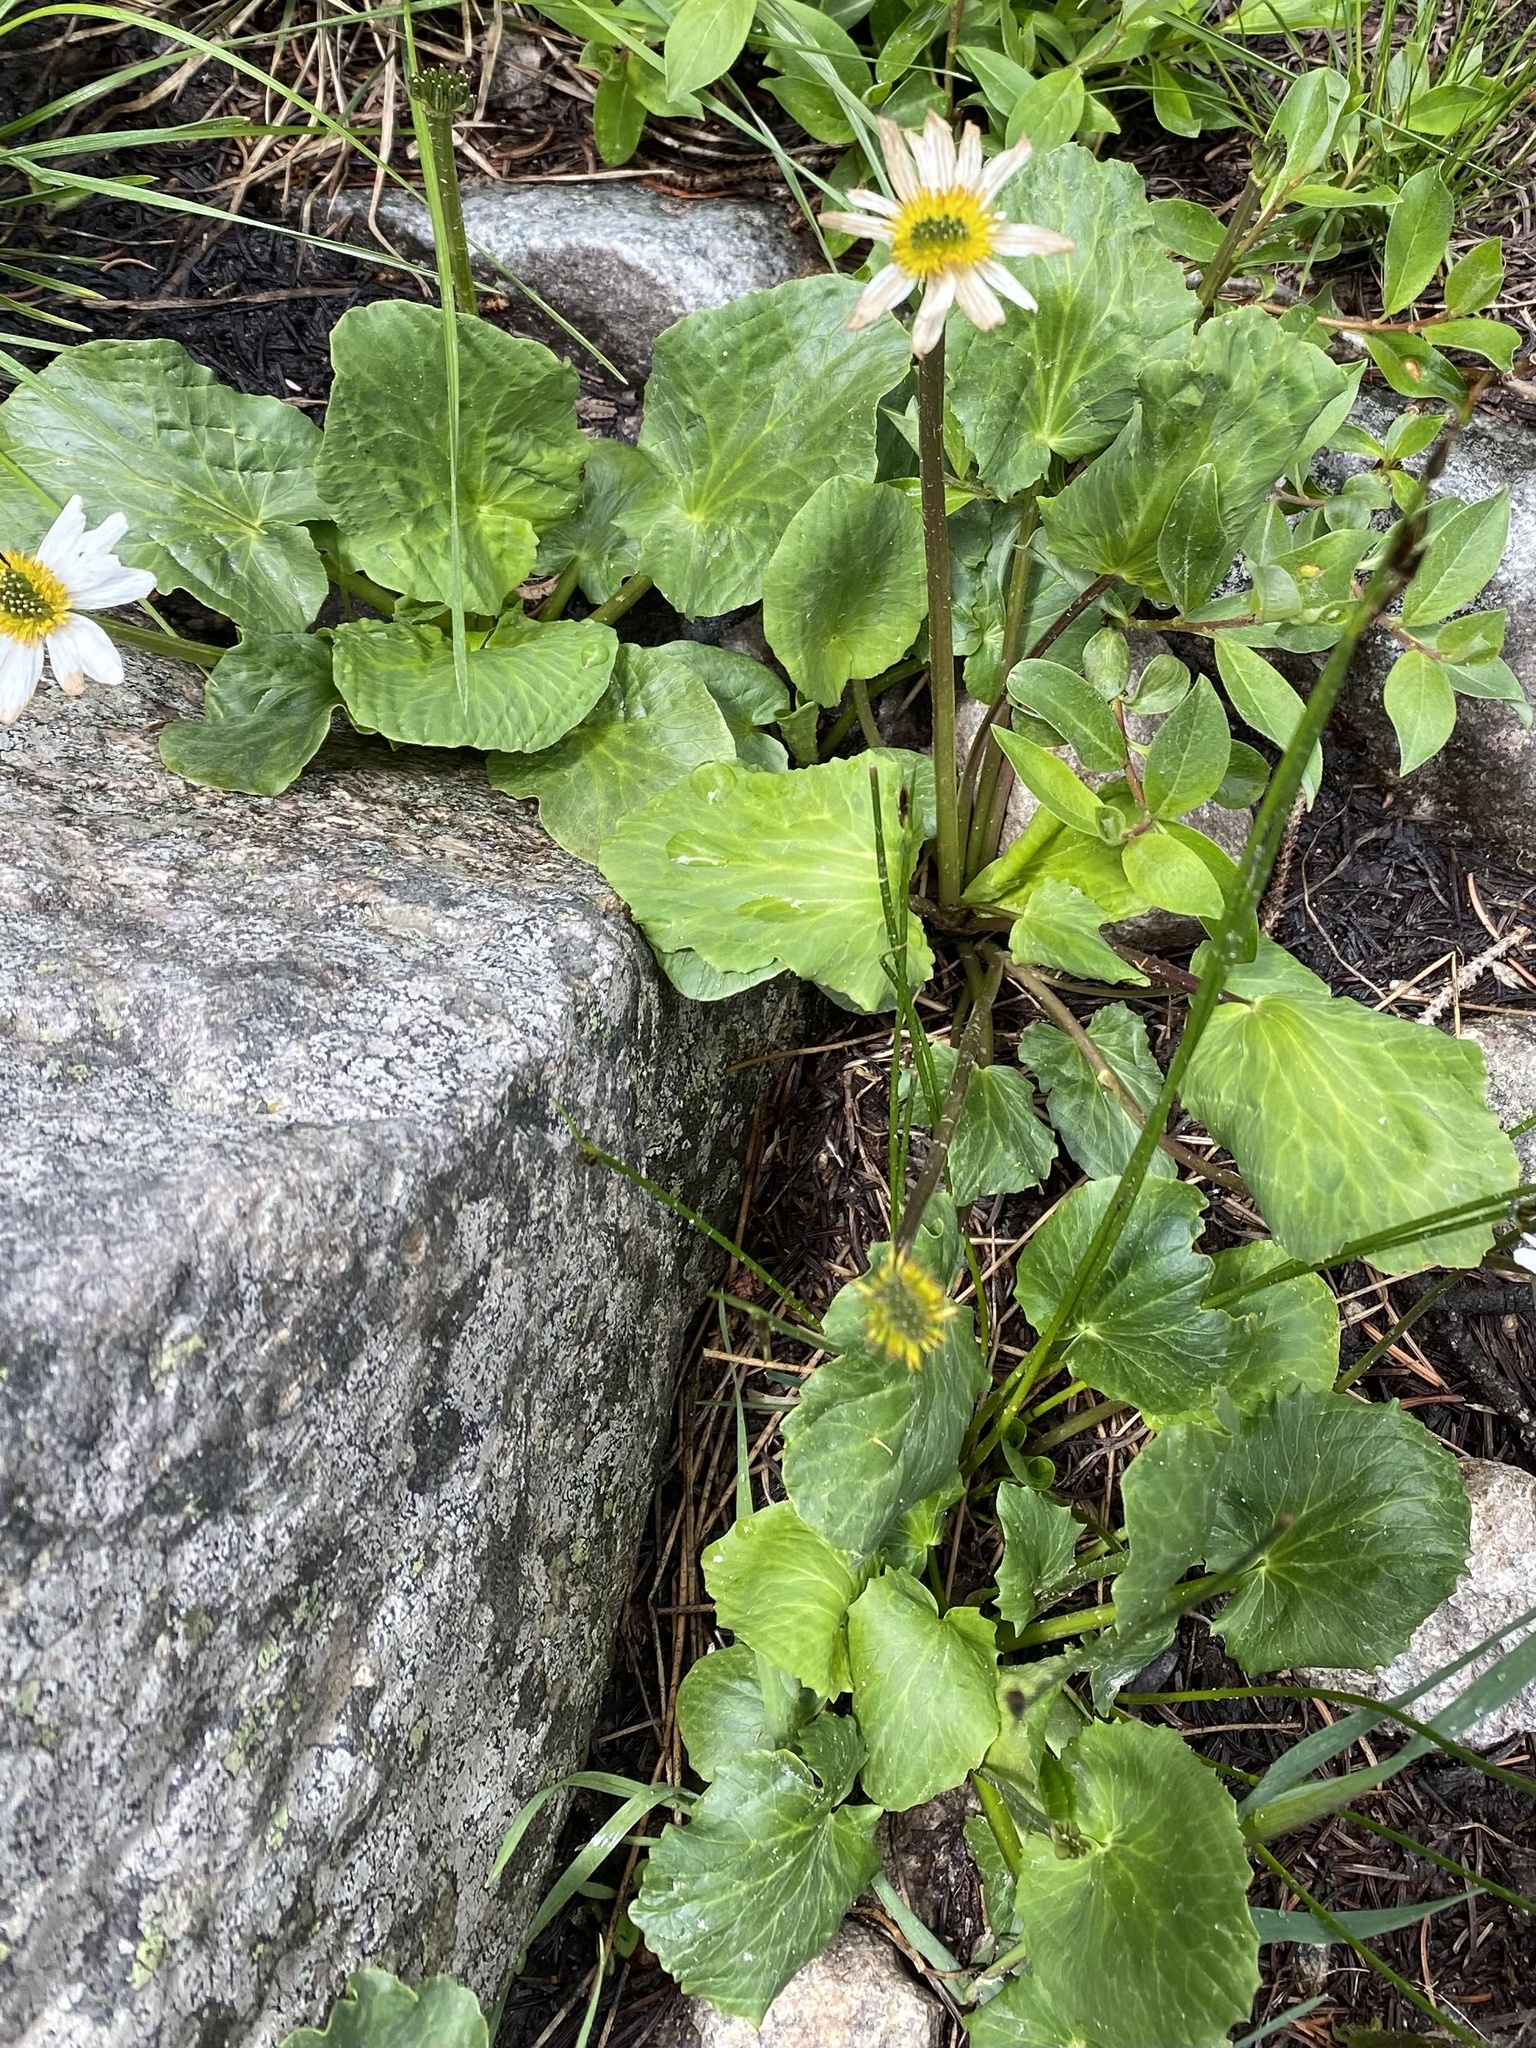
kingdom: Plantae
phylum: Tracheophyta
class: Magnoliopsida
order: Ranunculales
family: Ranunculaceae
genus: Caltha
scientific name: Caltha leptosepala
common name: Elkslip
